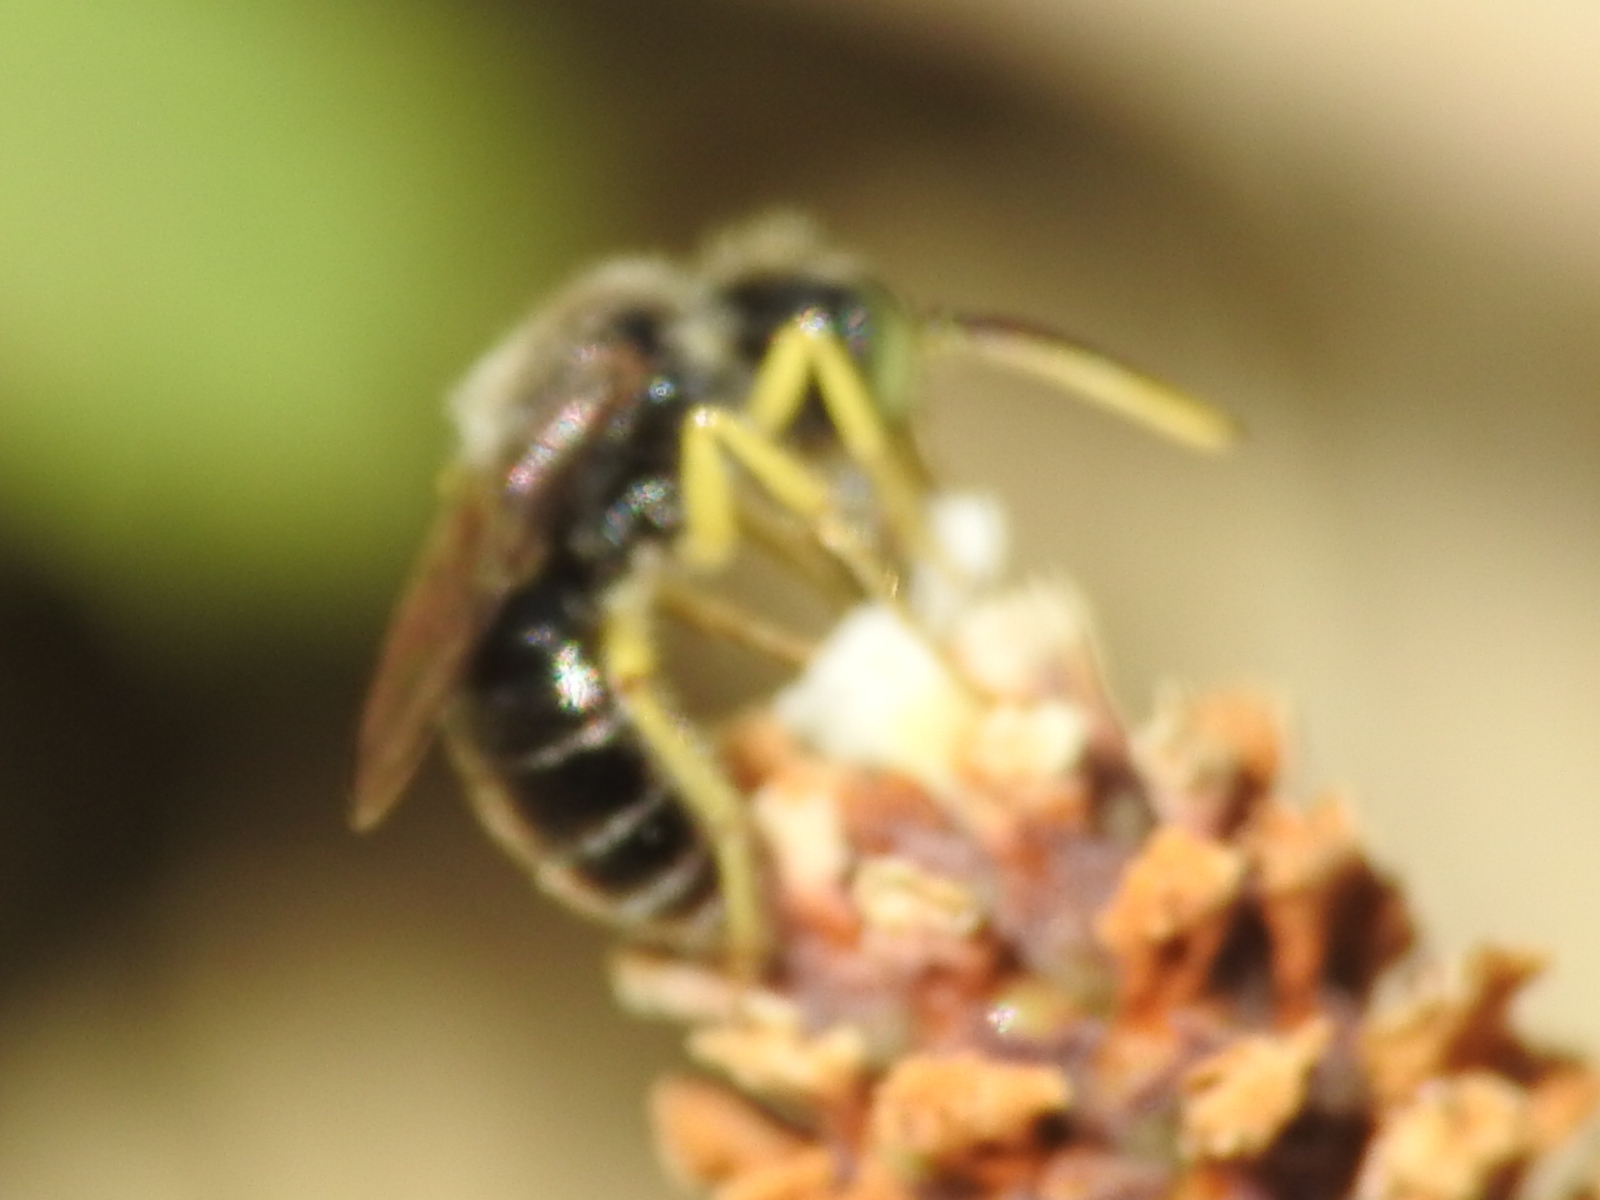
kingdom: Animalia
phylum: Arthropoda
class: Insecta
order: Hymenoptera
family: Andrenidae
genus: Calliopsis
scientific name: Calliopsis andreniformis
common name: Eastern calliopsis bee
